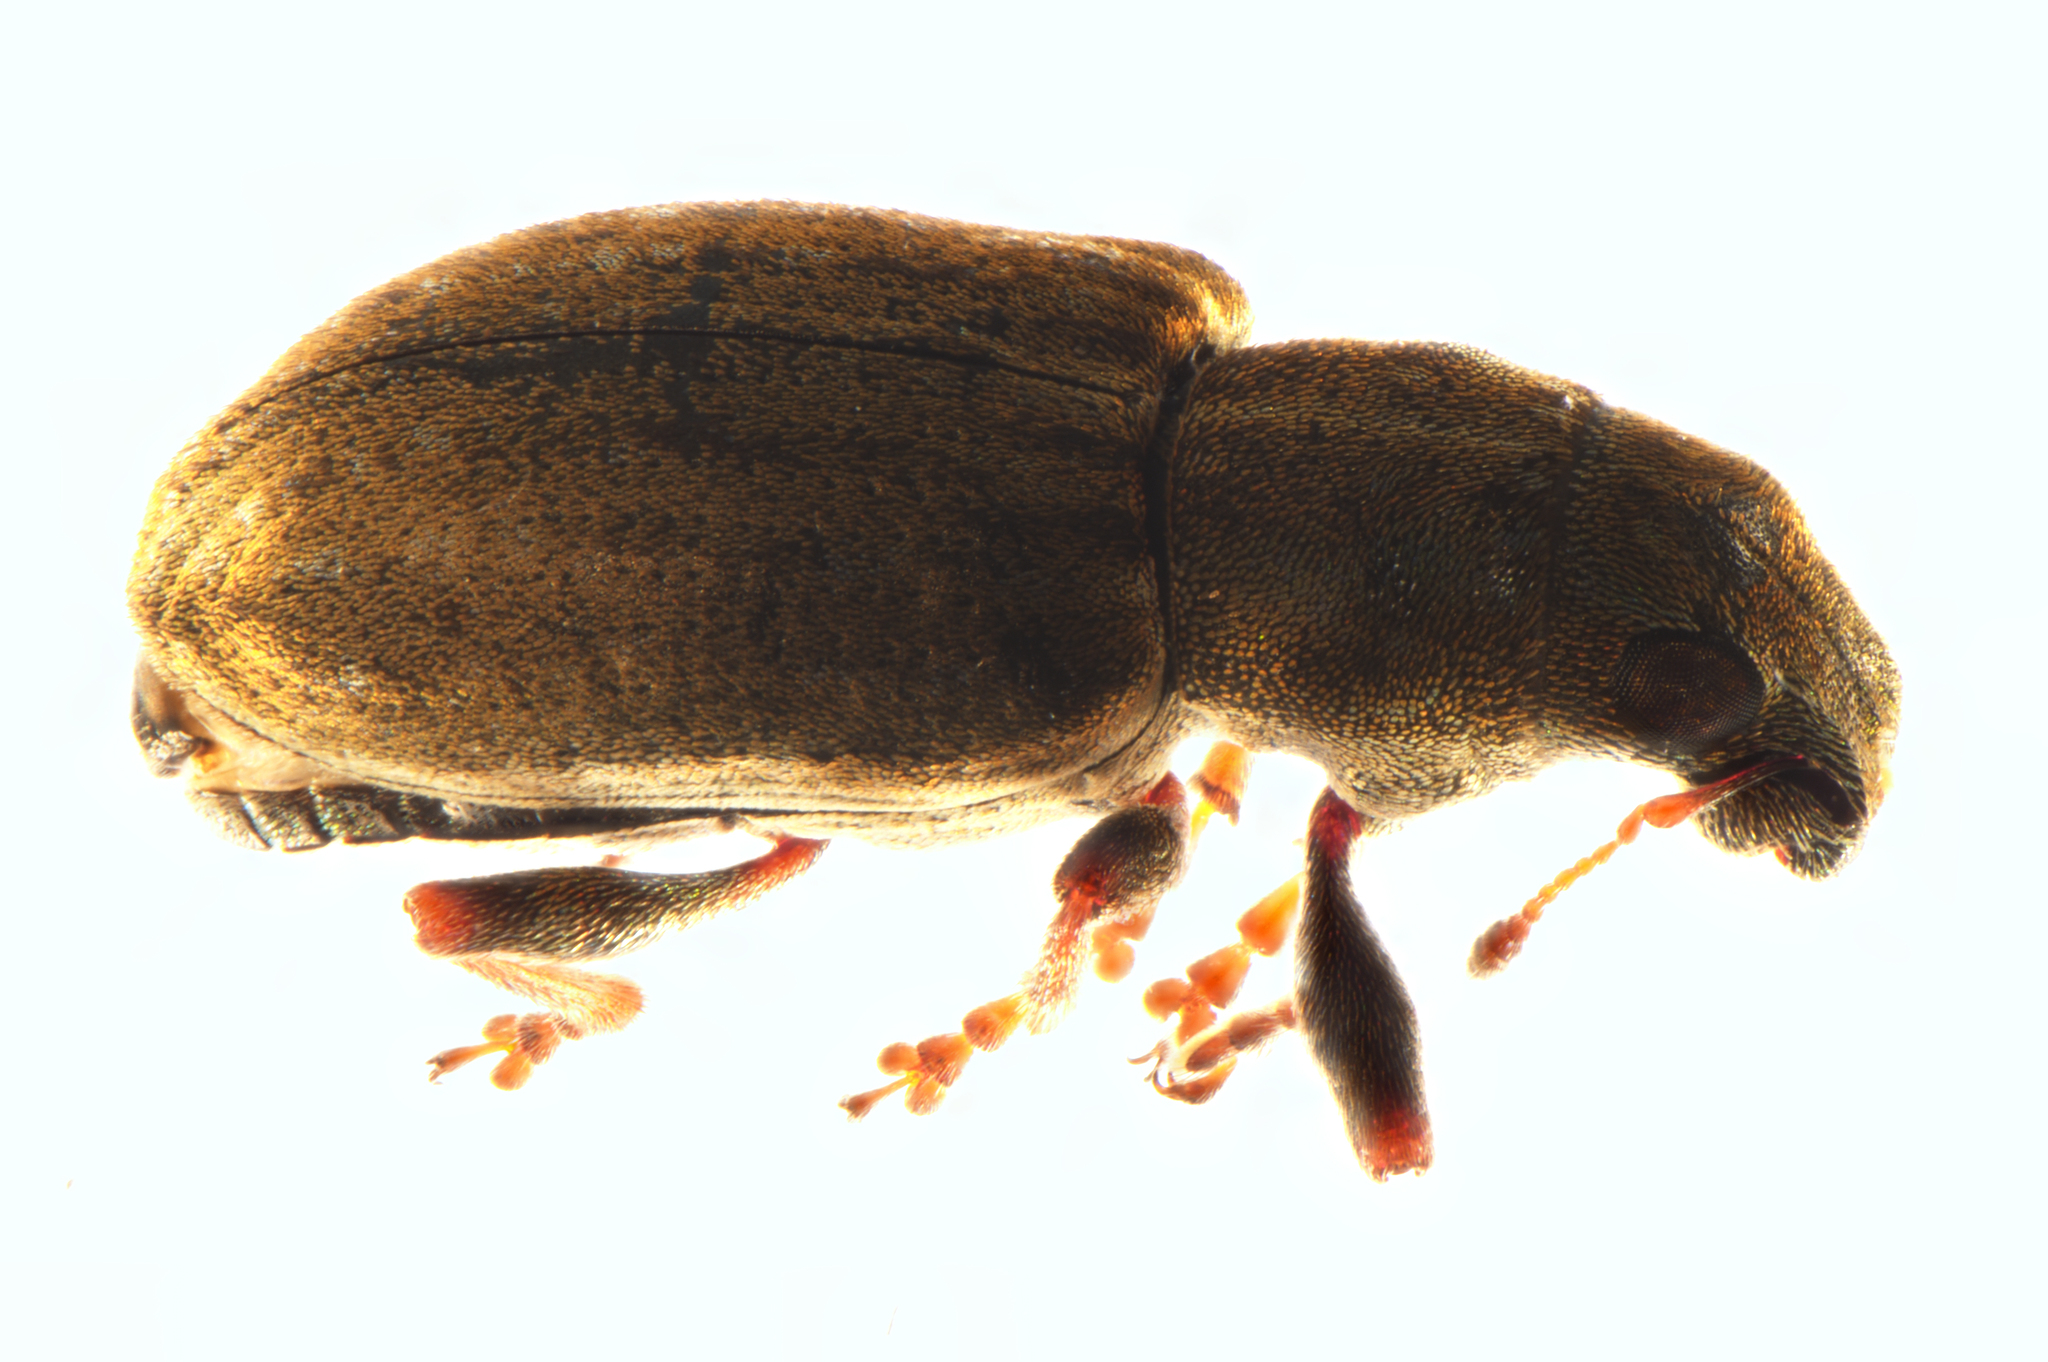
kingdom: Animalia
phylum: Arthropoda
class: Insecta
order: Coleoptera
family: Curculionidae
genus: Sitona
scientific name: Sitona obsoletus
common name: Weevil
